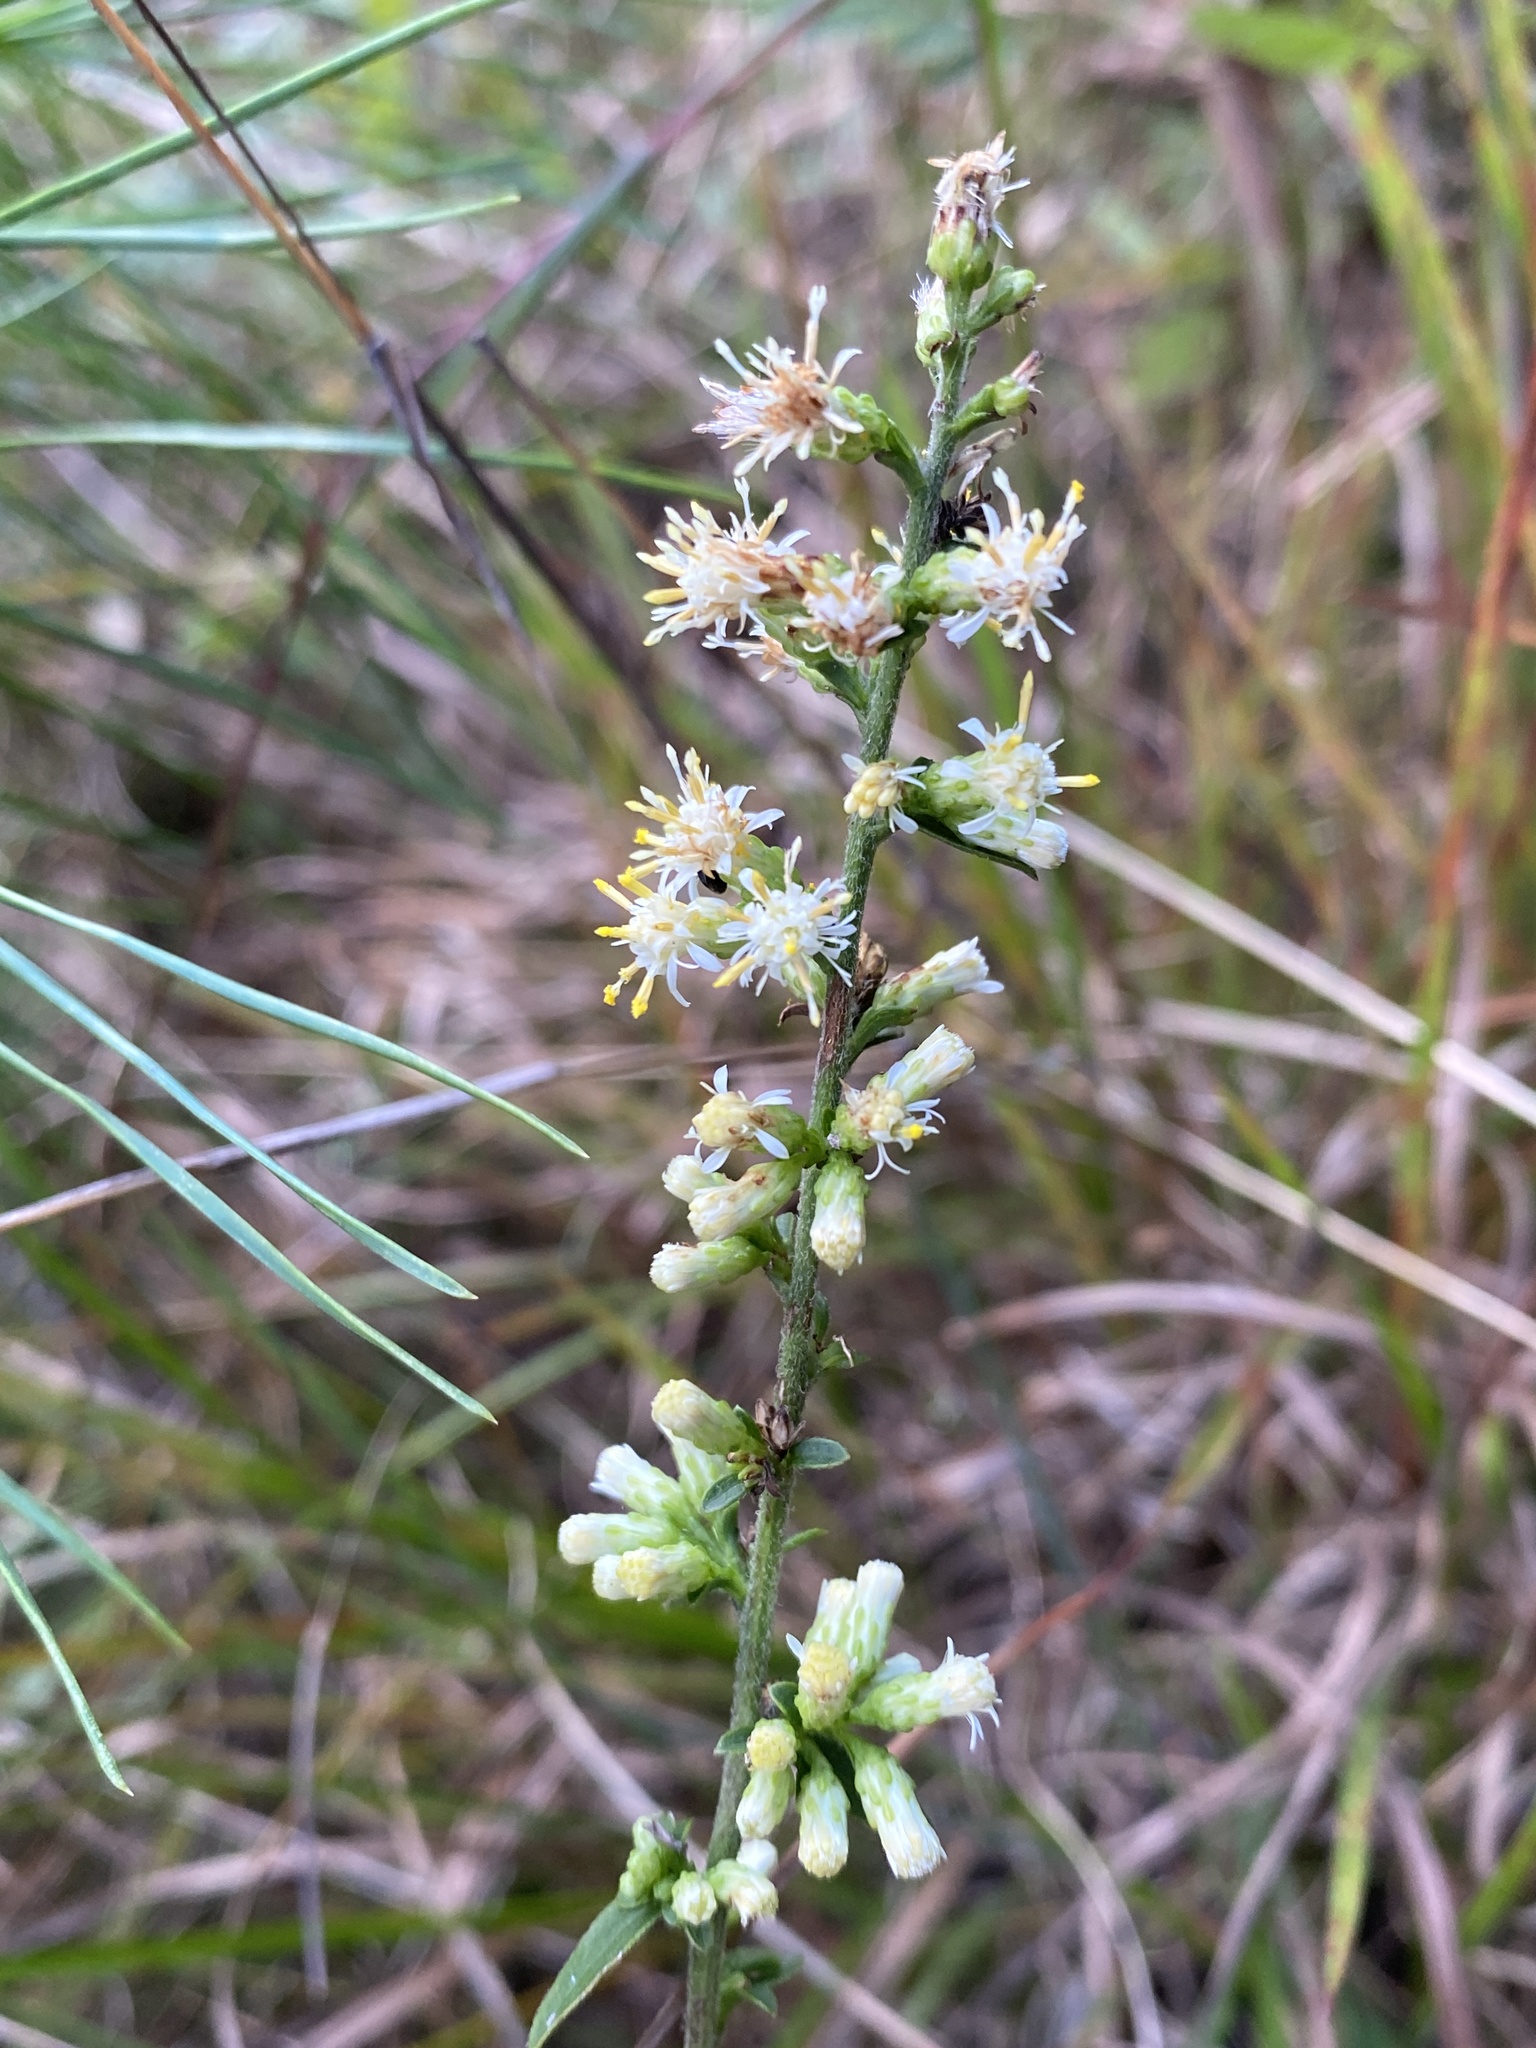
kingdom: Plantae
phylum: Tracheophyta
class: Magnoliopsida
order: Asterales
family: Asteraceae
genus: Solidago
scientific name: Solidago bicolor
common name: Silverrod
